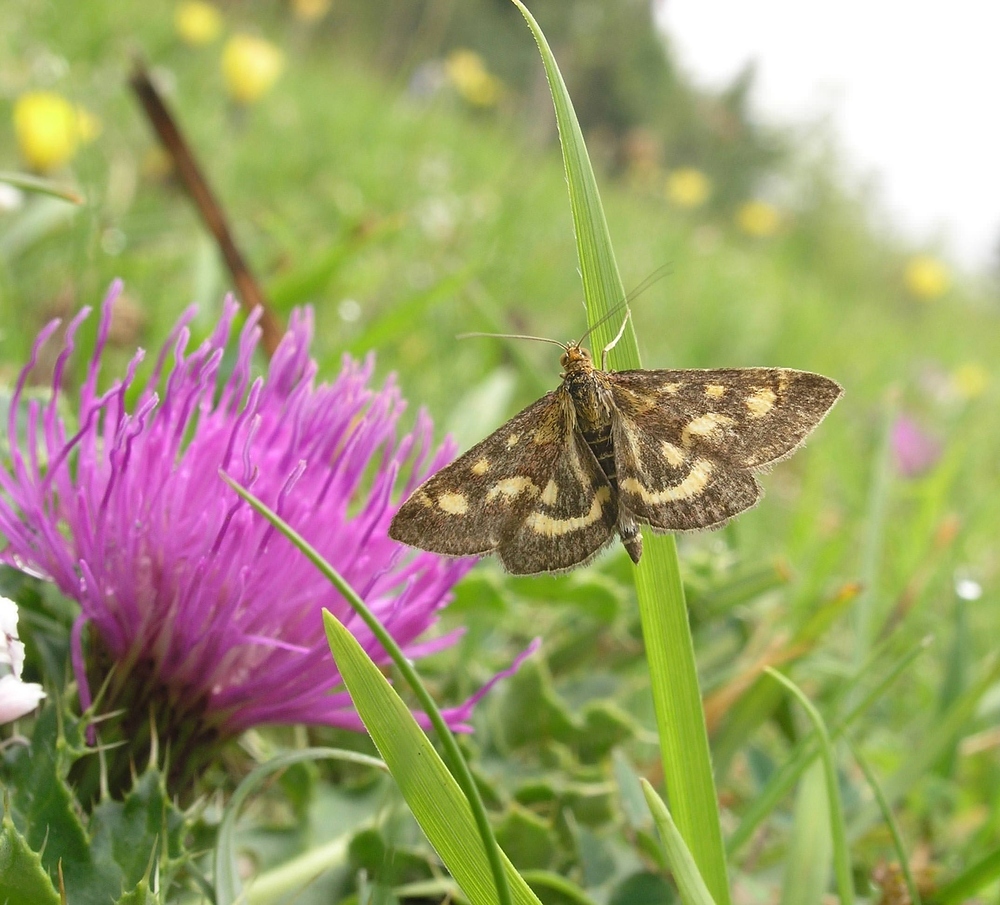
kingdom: Animalia
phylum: Arthropoda
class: Insecta
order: Lepidoptera
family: Crambidae
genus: Pyrausta
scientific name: Pyrausta purpuralis
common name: Common purple & gold
